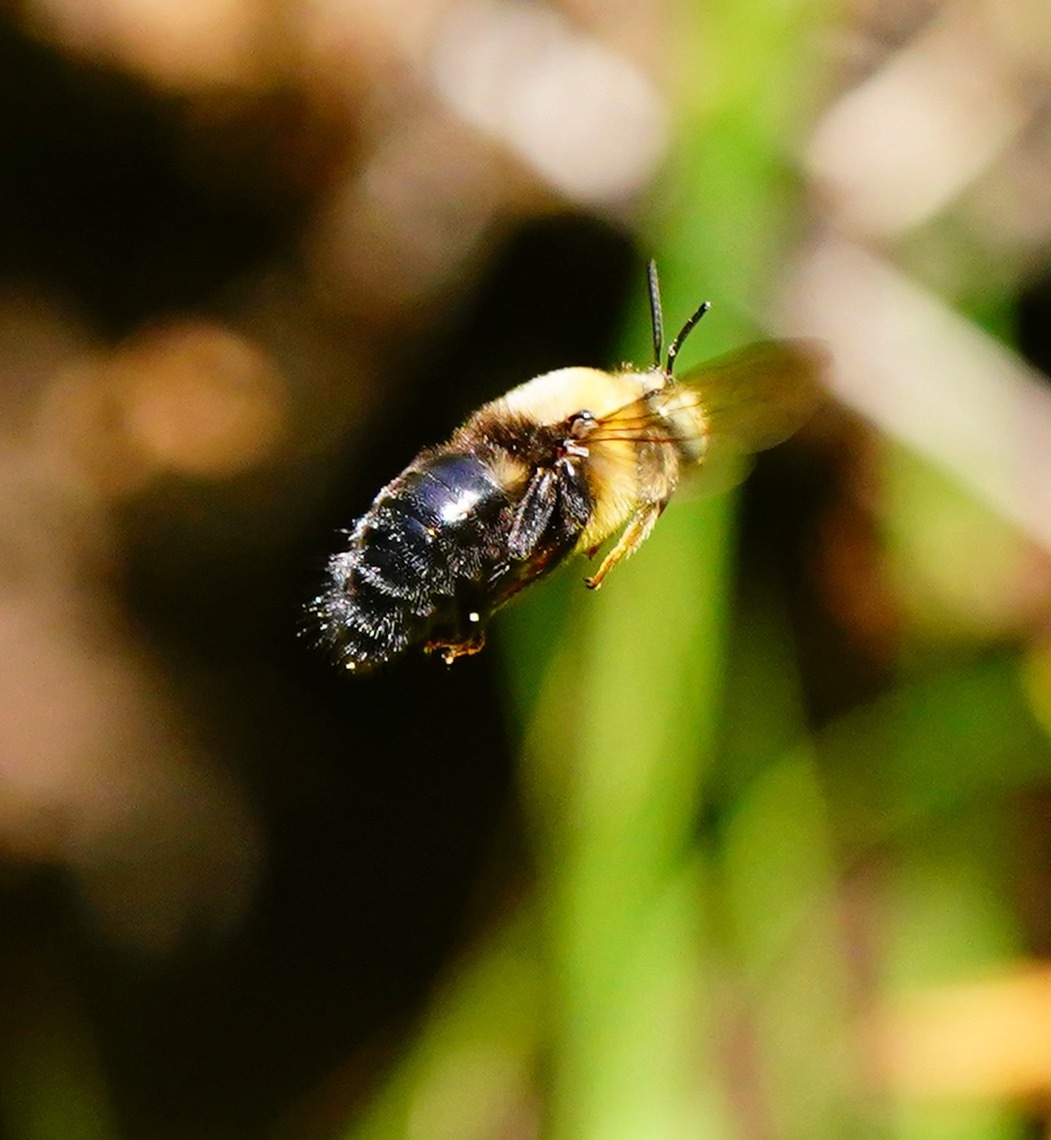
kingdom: Animalia
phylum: Arthropoda
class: Insecta
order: Hymenoptera
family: Apidae
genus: Xylocopa
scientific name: Xylocopa tabaniformis
